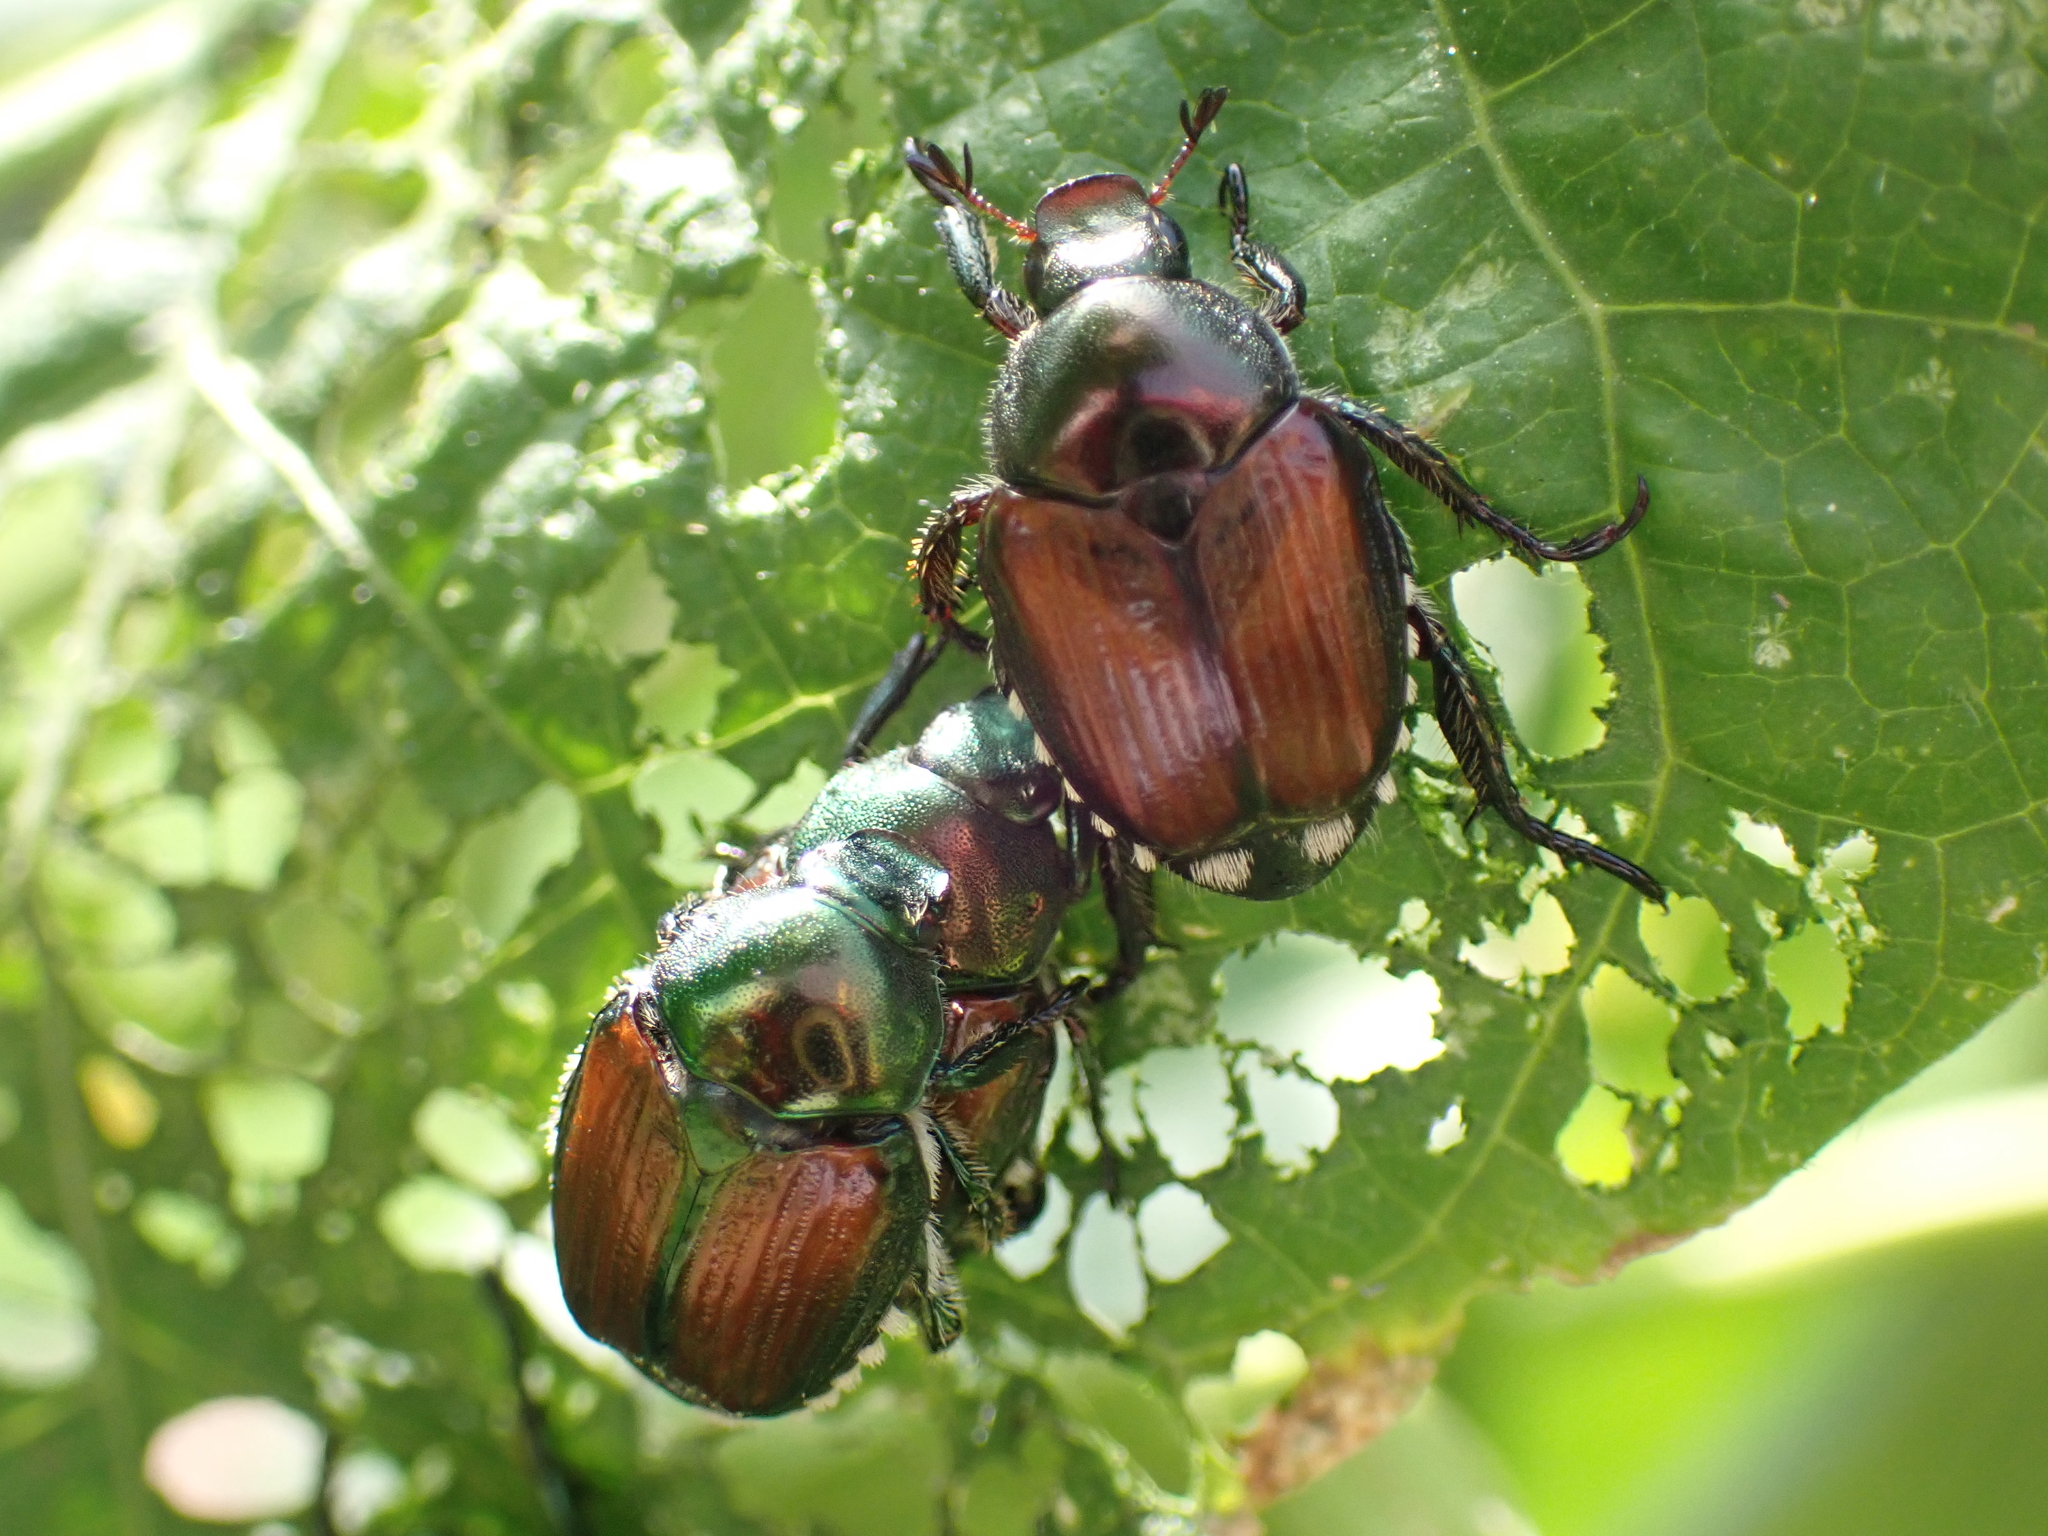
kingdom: Animalia
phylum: Arthropoda
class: Insecta
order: Coleoptera
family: Scarabaeidae
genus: Popillia
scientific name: Popillia japonica
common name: Japanese beetle
